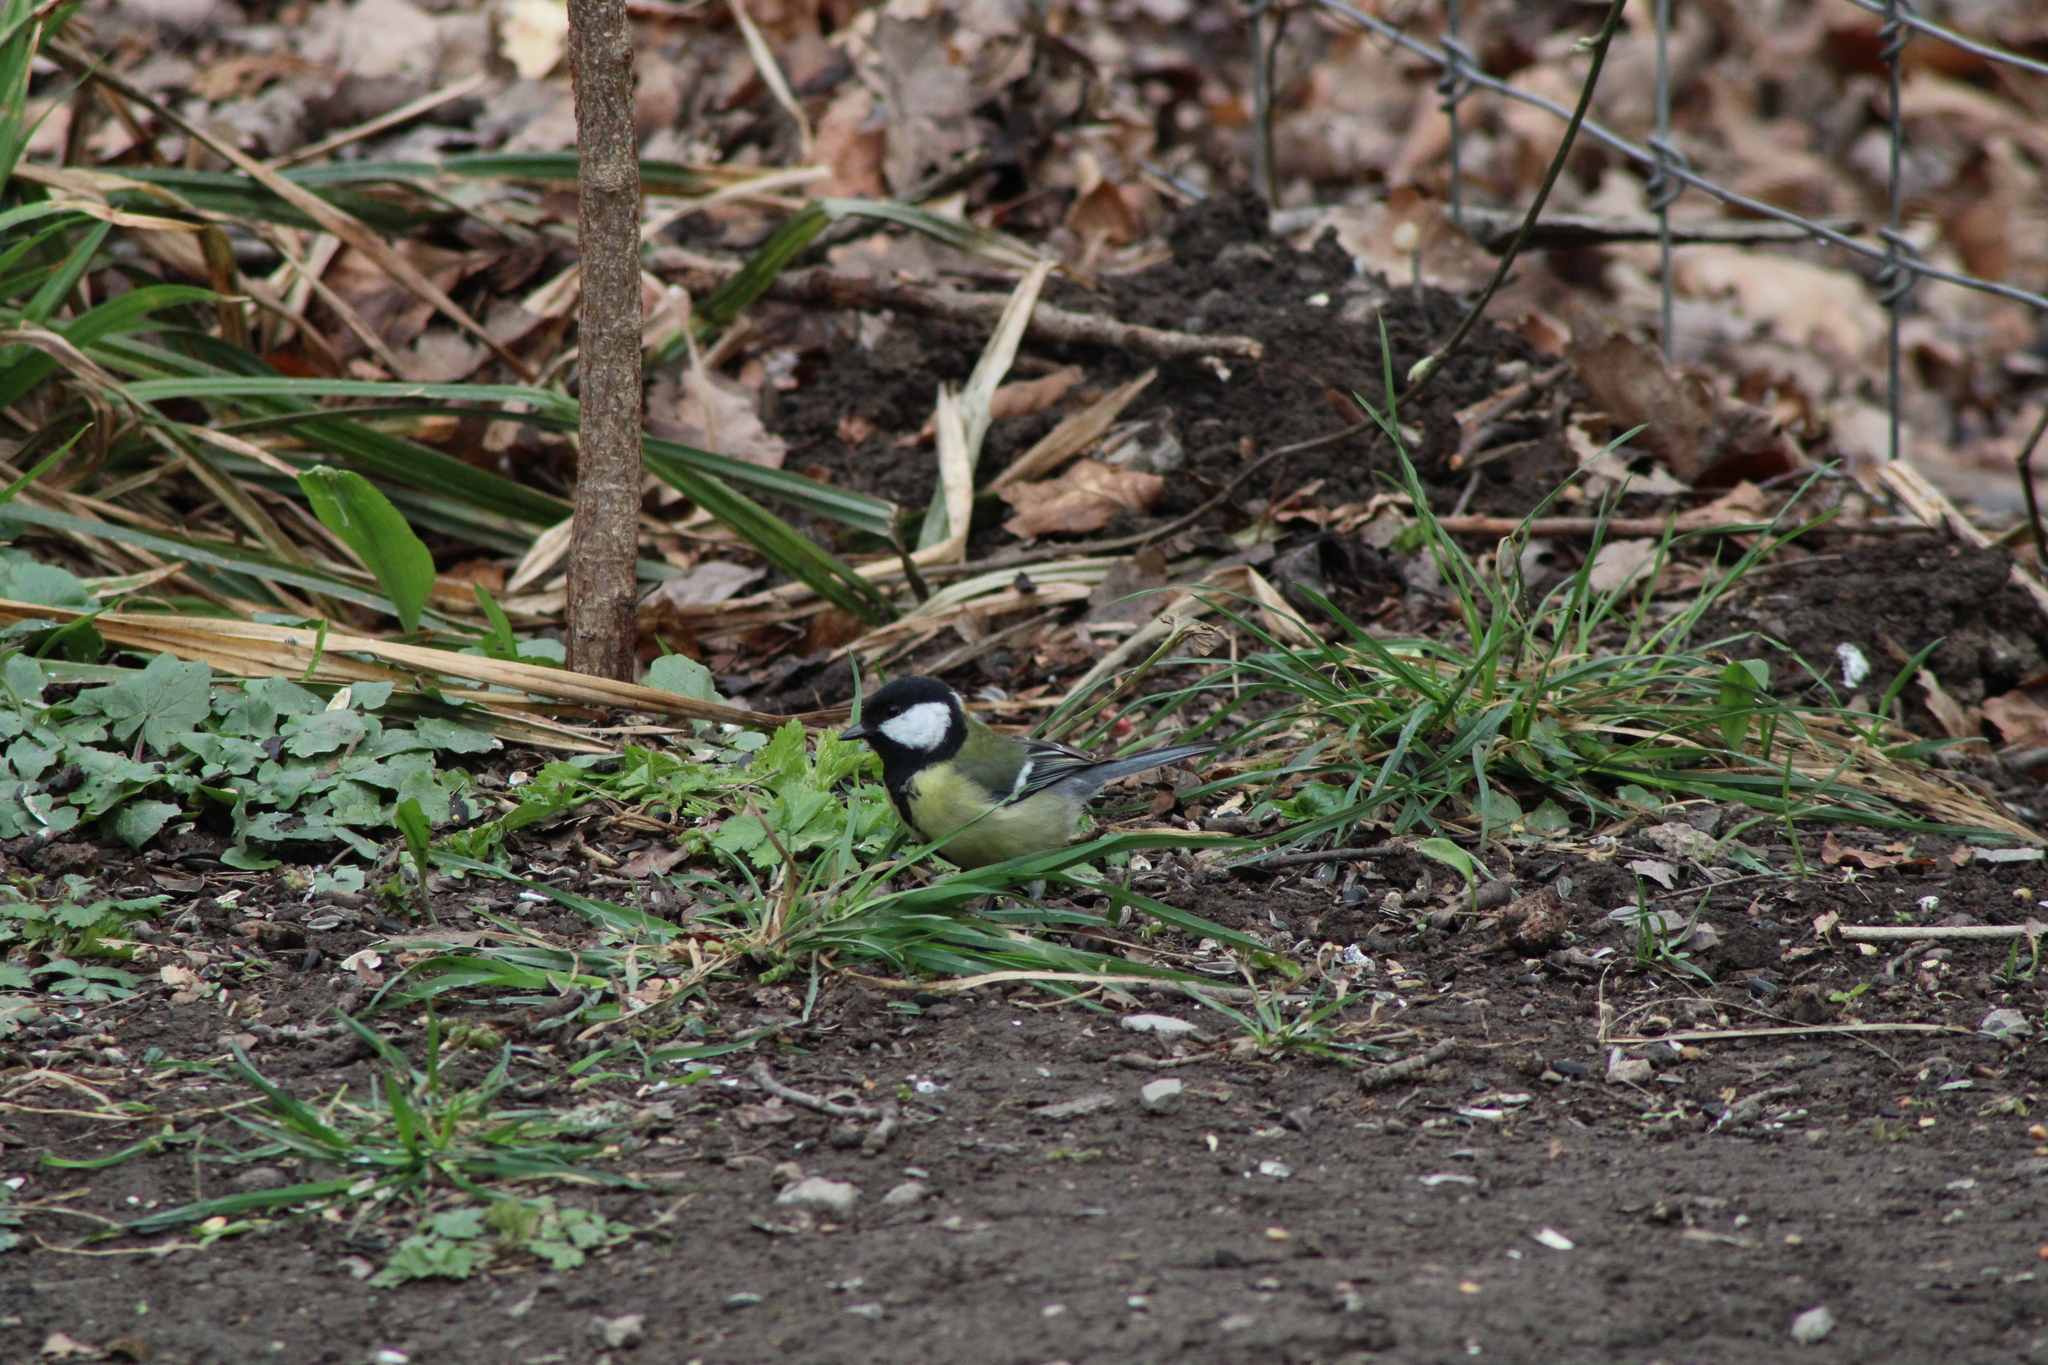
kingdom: Animalia
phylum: Chordata
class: Aves
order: Passeriformes
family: Paridae
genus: Parus
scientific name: Parus major
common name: Great tit
